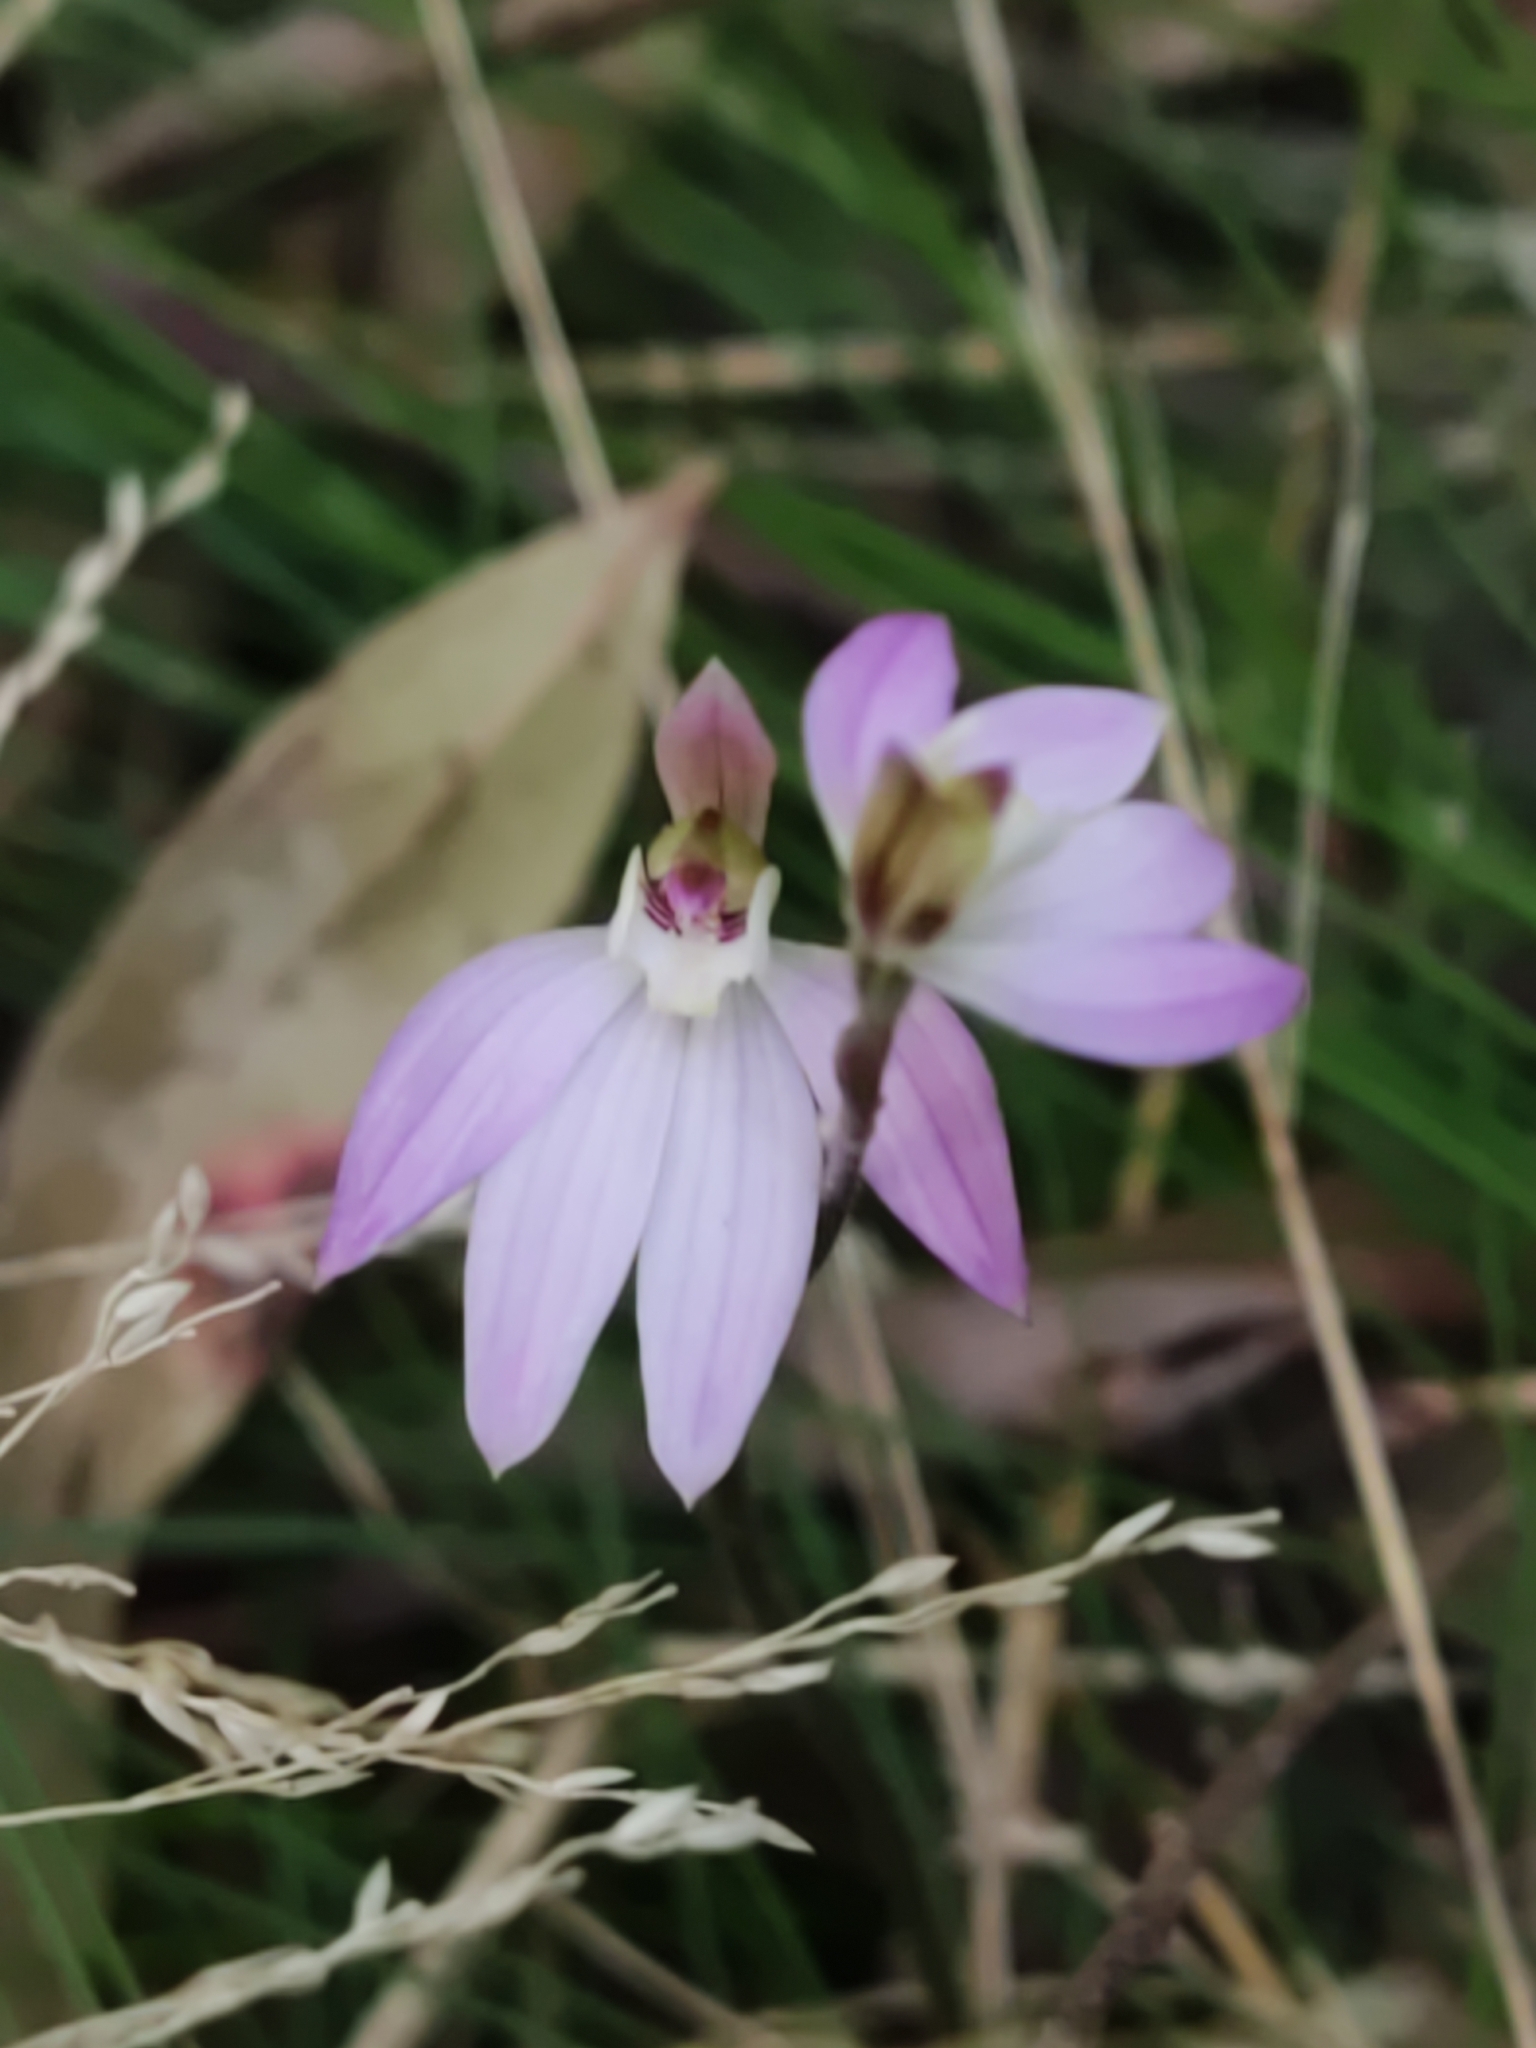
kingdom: Plantae
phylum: Tracheophyta
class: Liliopsida
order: Asparagales
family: Orchidaceae
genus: Caladenia
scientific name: Caladenia carnea
